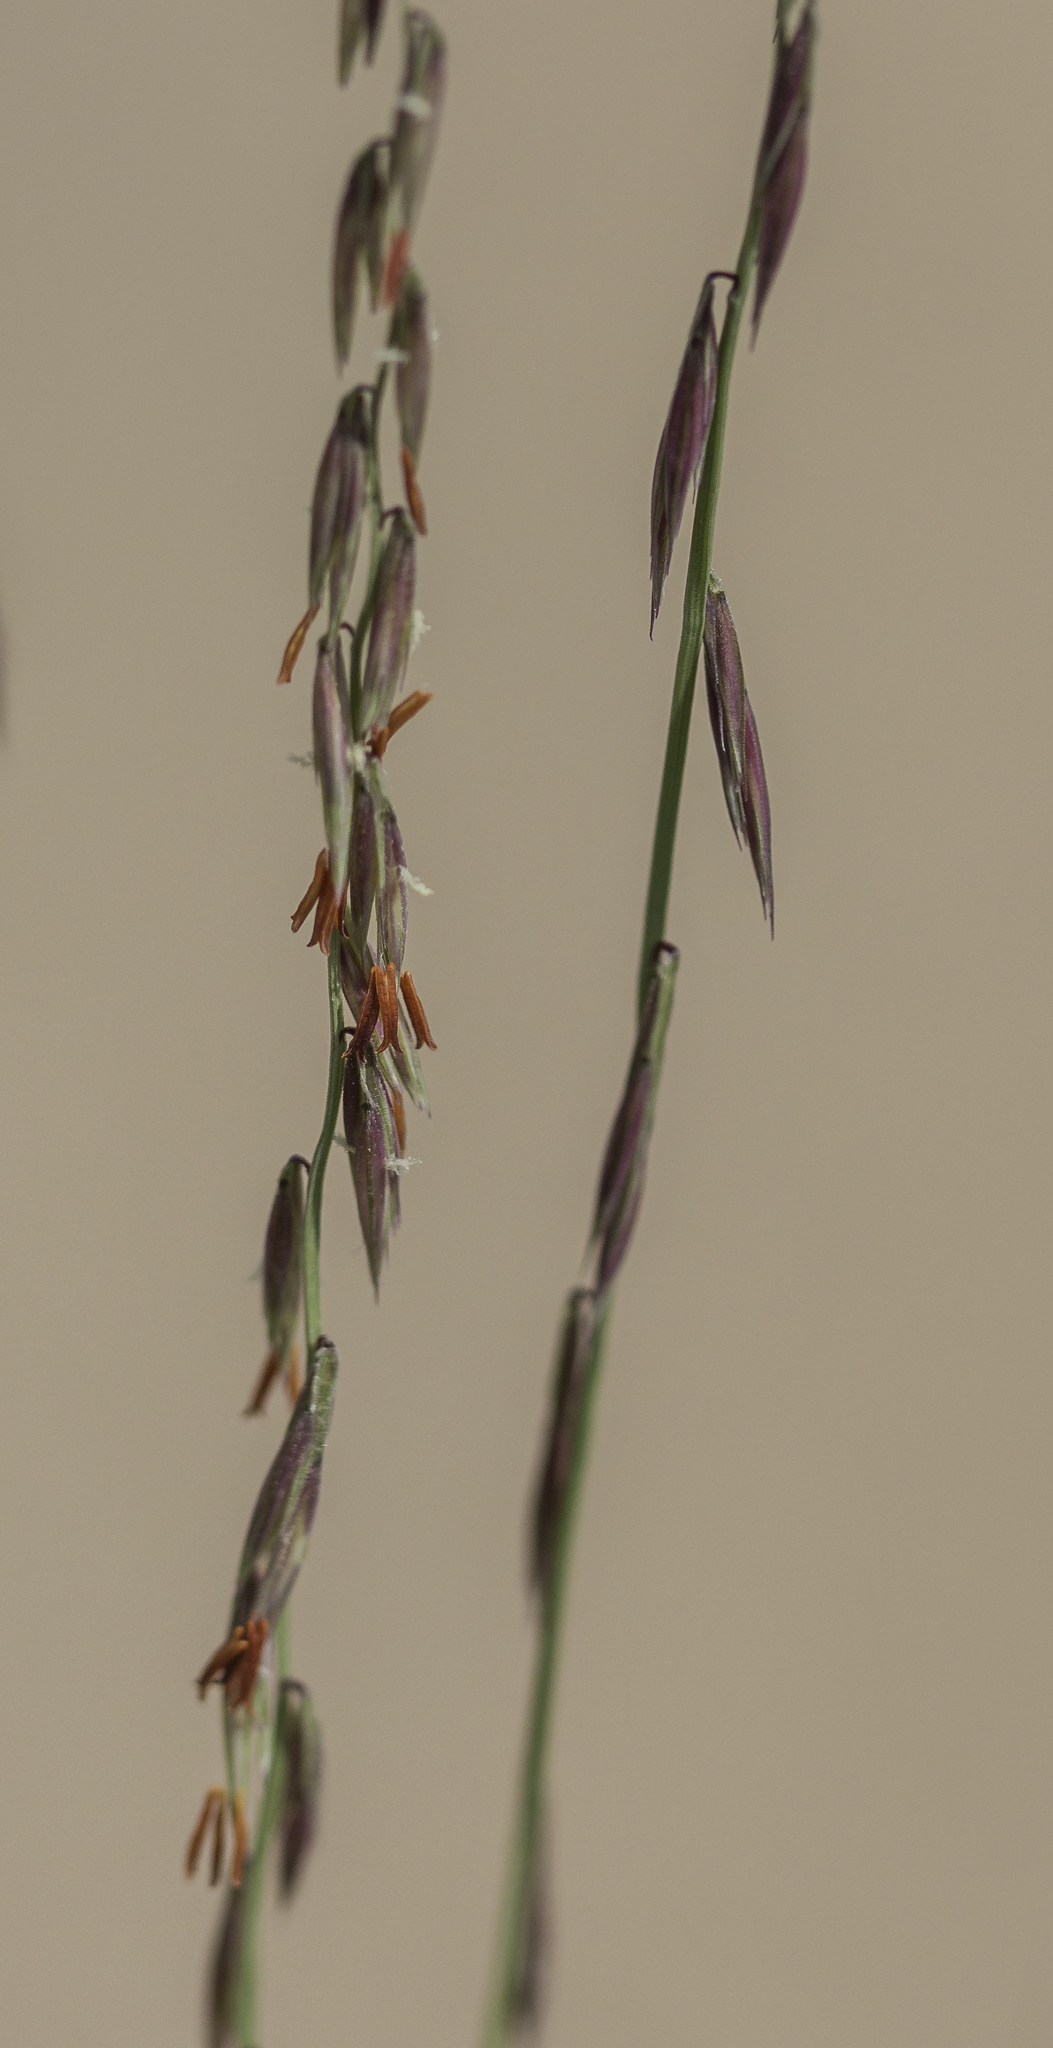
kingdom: Plantae
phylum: Tracheophyta
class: Liliopsida
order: Poales
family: Poaceae
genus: Bouteloua
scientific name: Bouteloua curtipendula
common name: Side-oats grama
